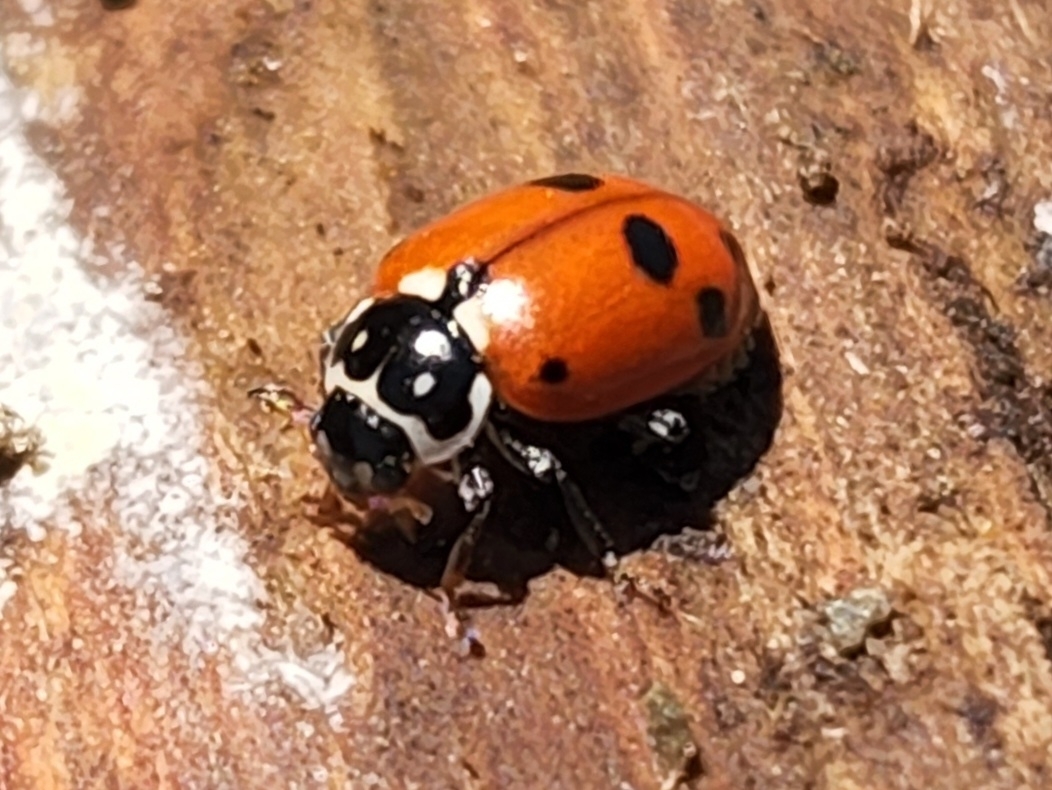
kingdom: Animalia
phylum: Arthropoda
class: Insecta
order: Coleoptera
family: Coccinellidae
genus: Hippodamia
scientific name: Hippodamia variegata
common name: Ladybird beetle
